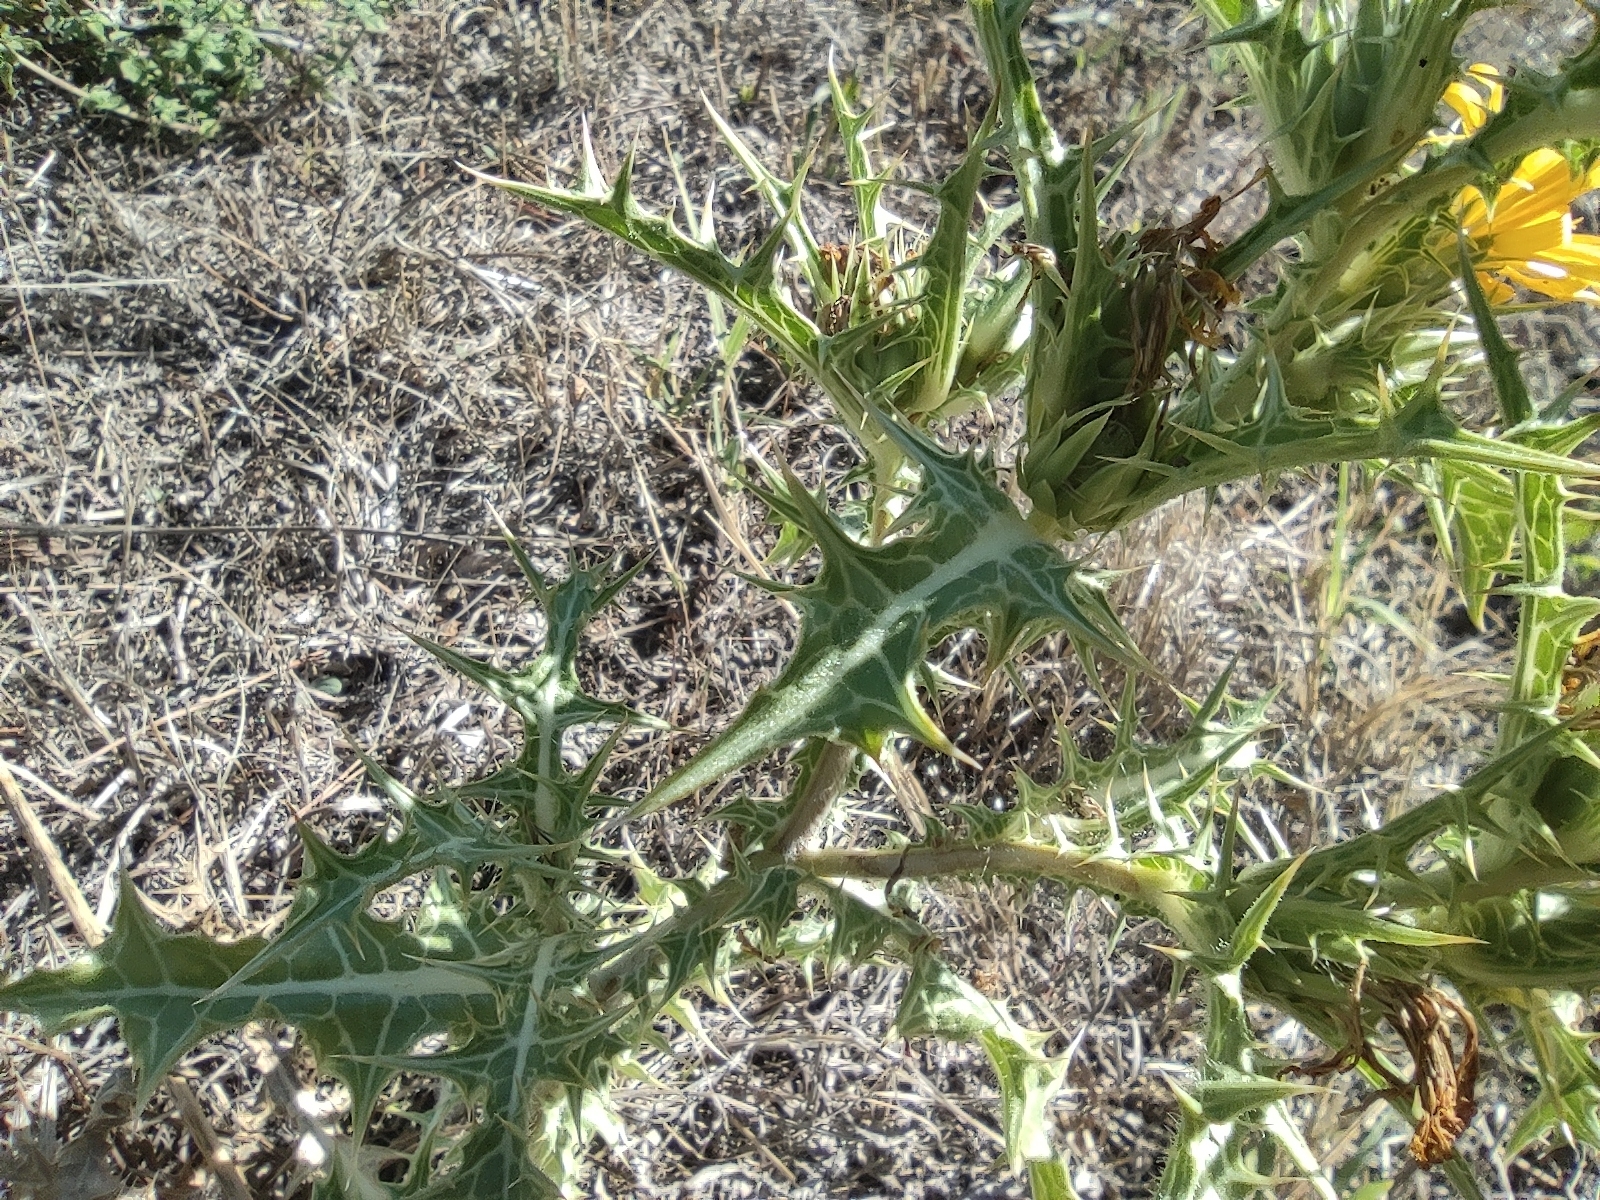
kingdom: Plantae
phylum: Tracheophyta
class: Magnoliopsida
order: Asterales
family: Asteraceae
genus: Scolymus
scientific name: Scolymus hispanicus
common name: Golden thistle
